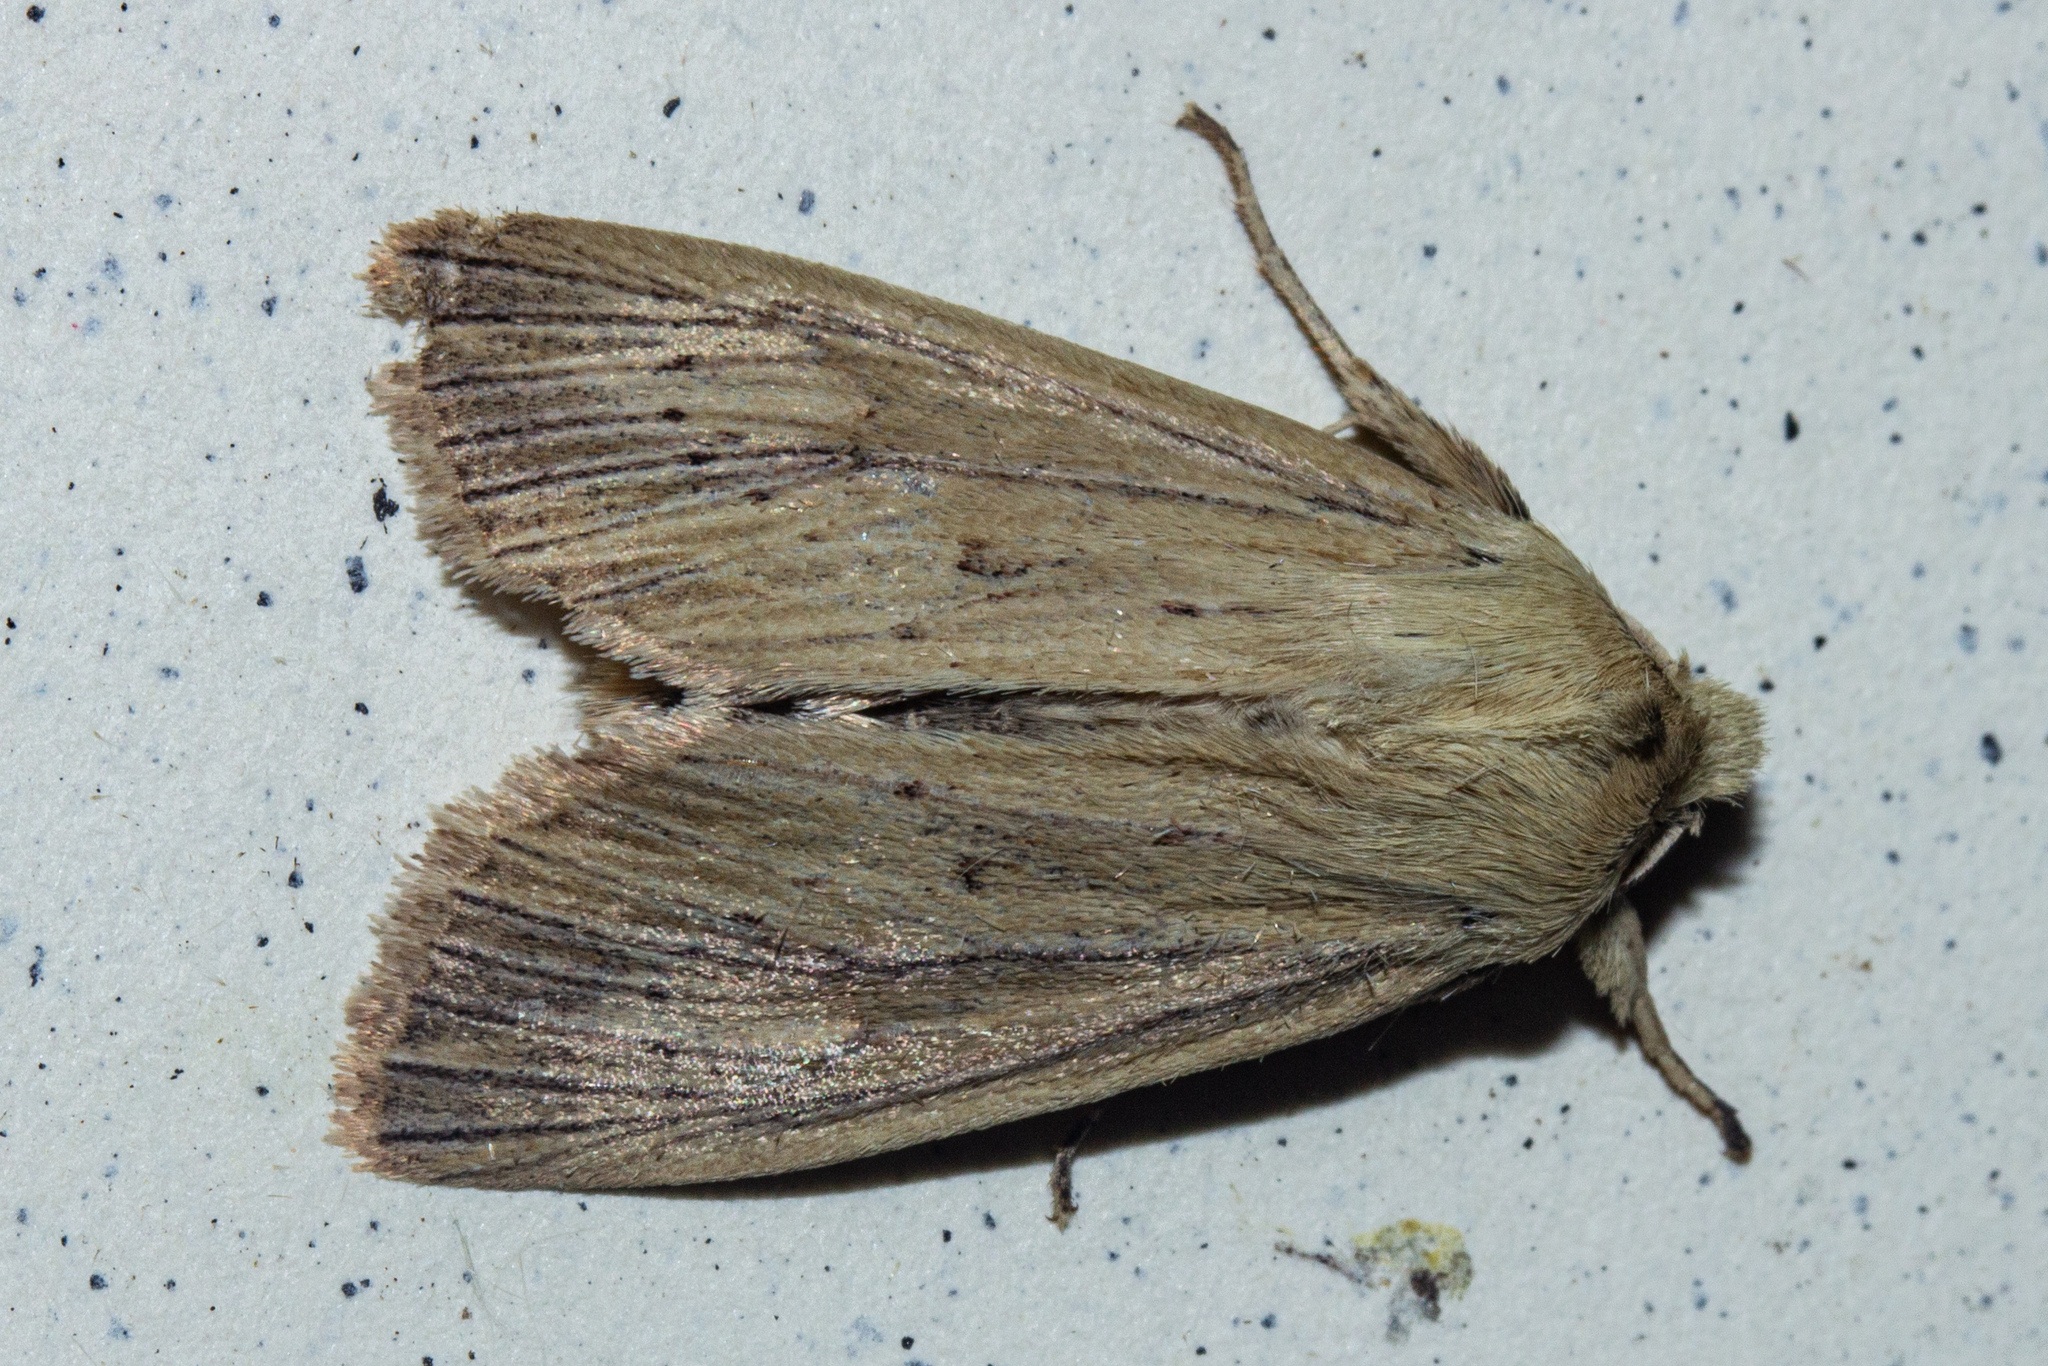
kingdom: Animalia
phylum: Arthropoda
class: Insecta
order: Lepidoptera
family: Noctuidae
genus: Ichneutica
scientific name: Ichneutica arotis
